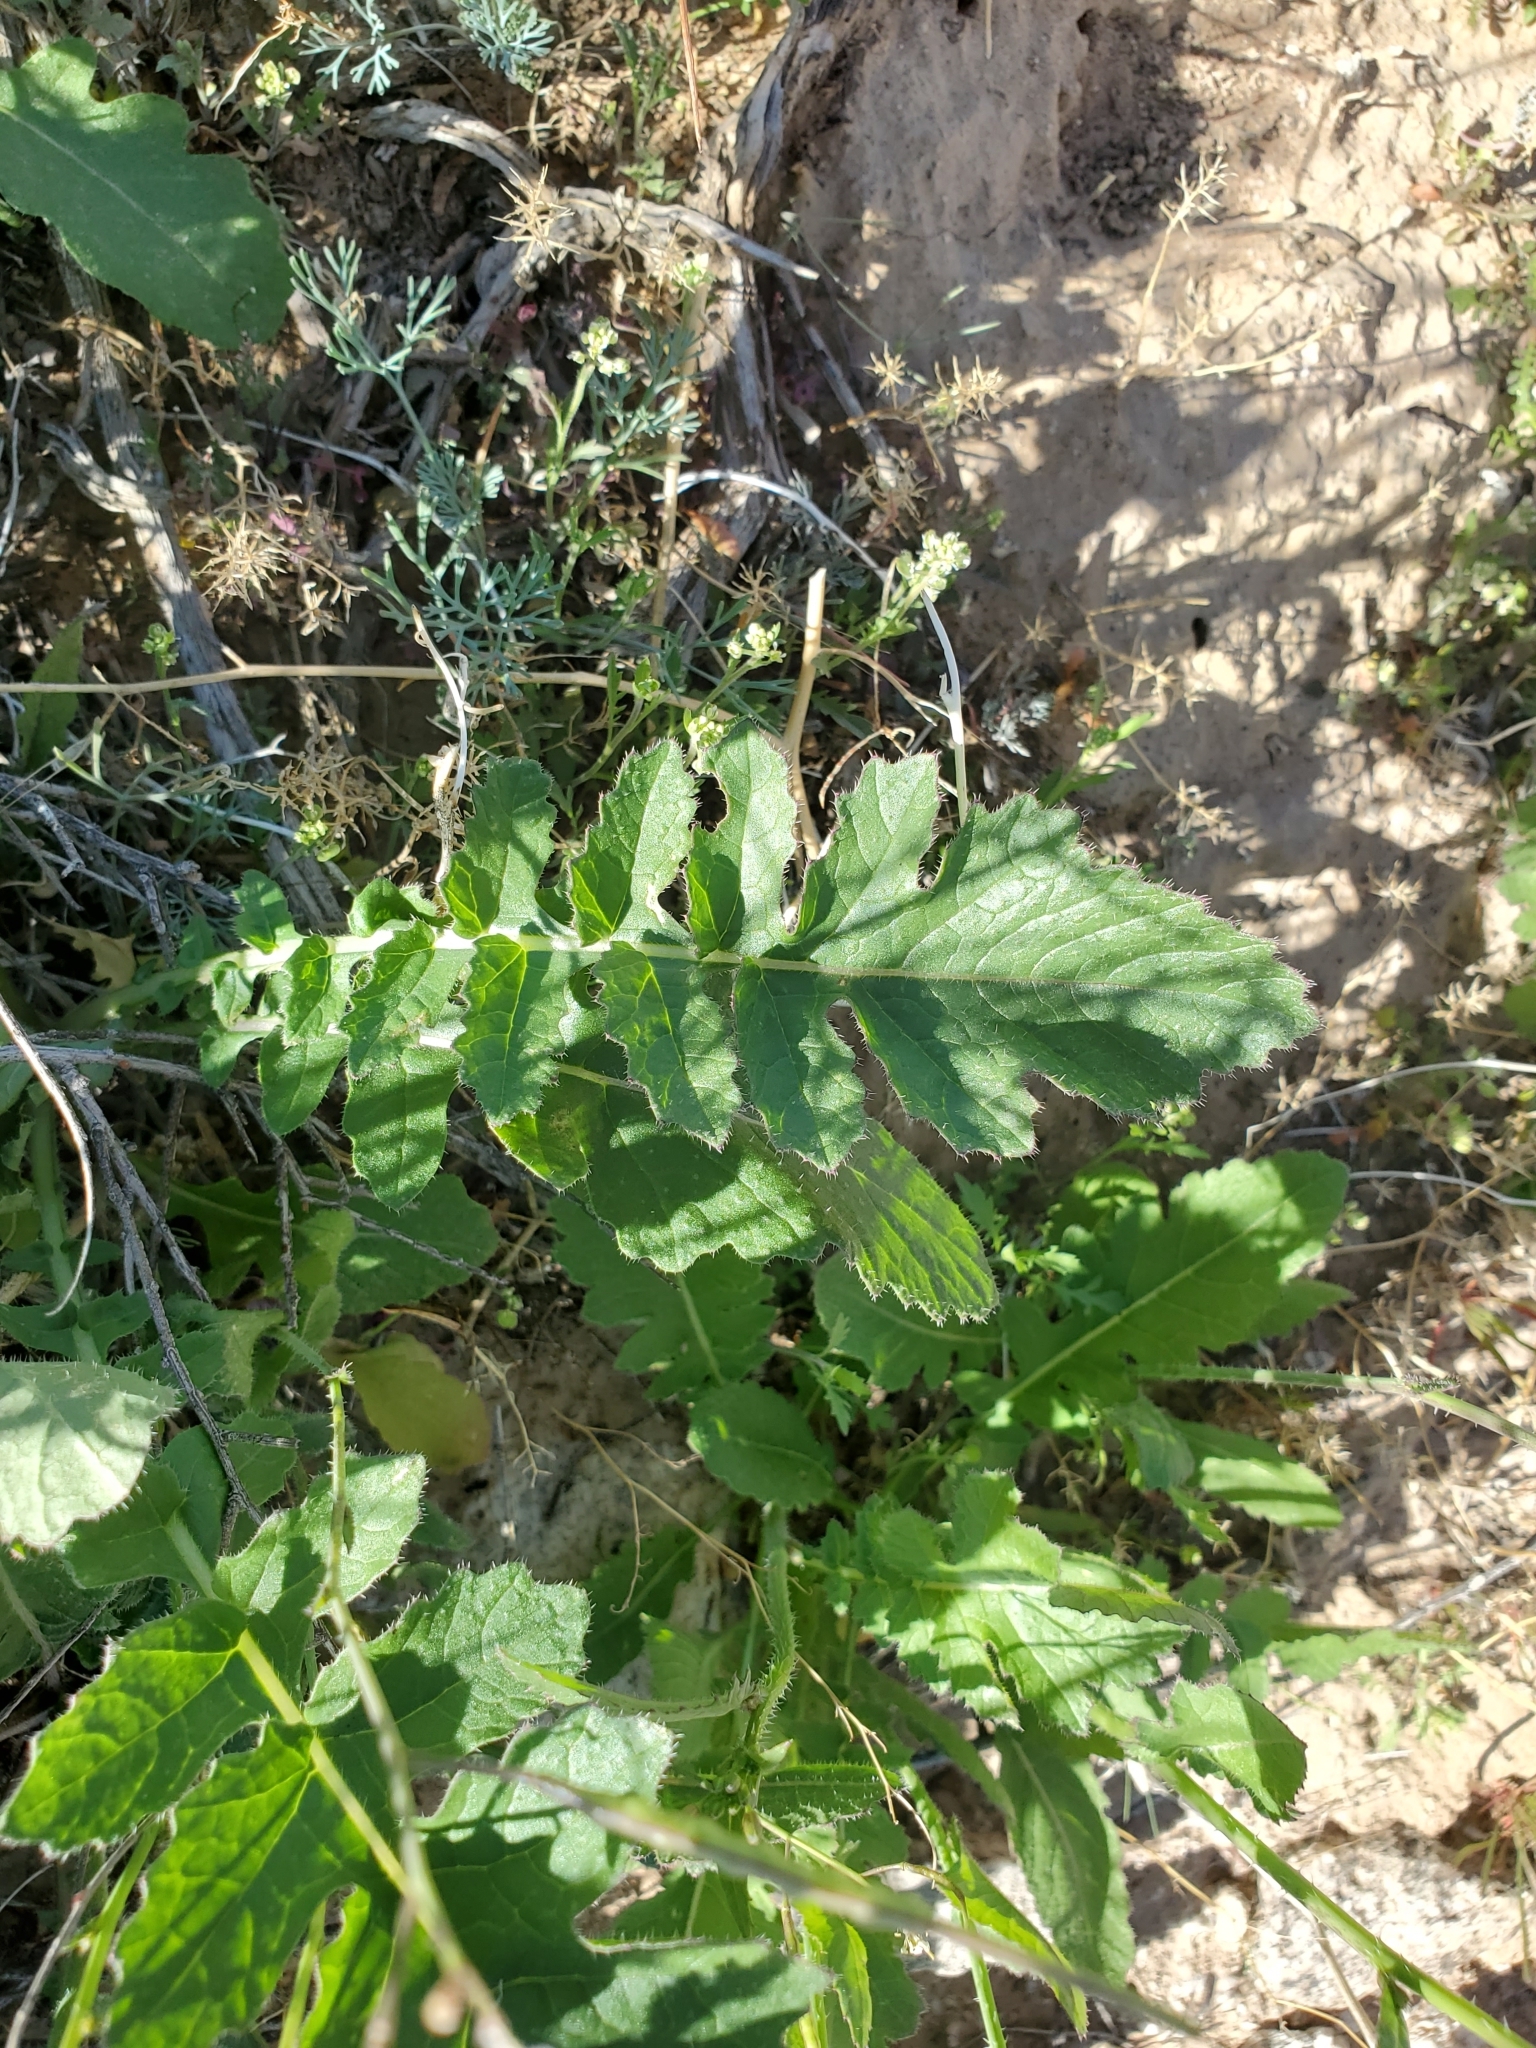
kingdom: Plantae
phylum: Tracheophyta
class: Magnoliopsida
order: Brassicales
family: Brassicaceae
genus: Brassica
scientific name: Brassica tournefortii
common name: Pale cabbage
